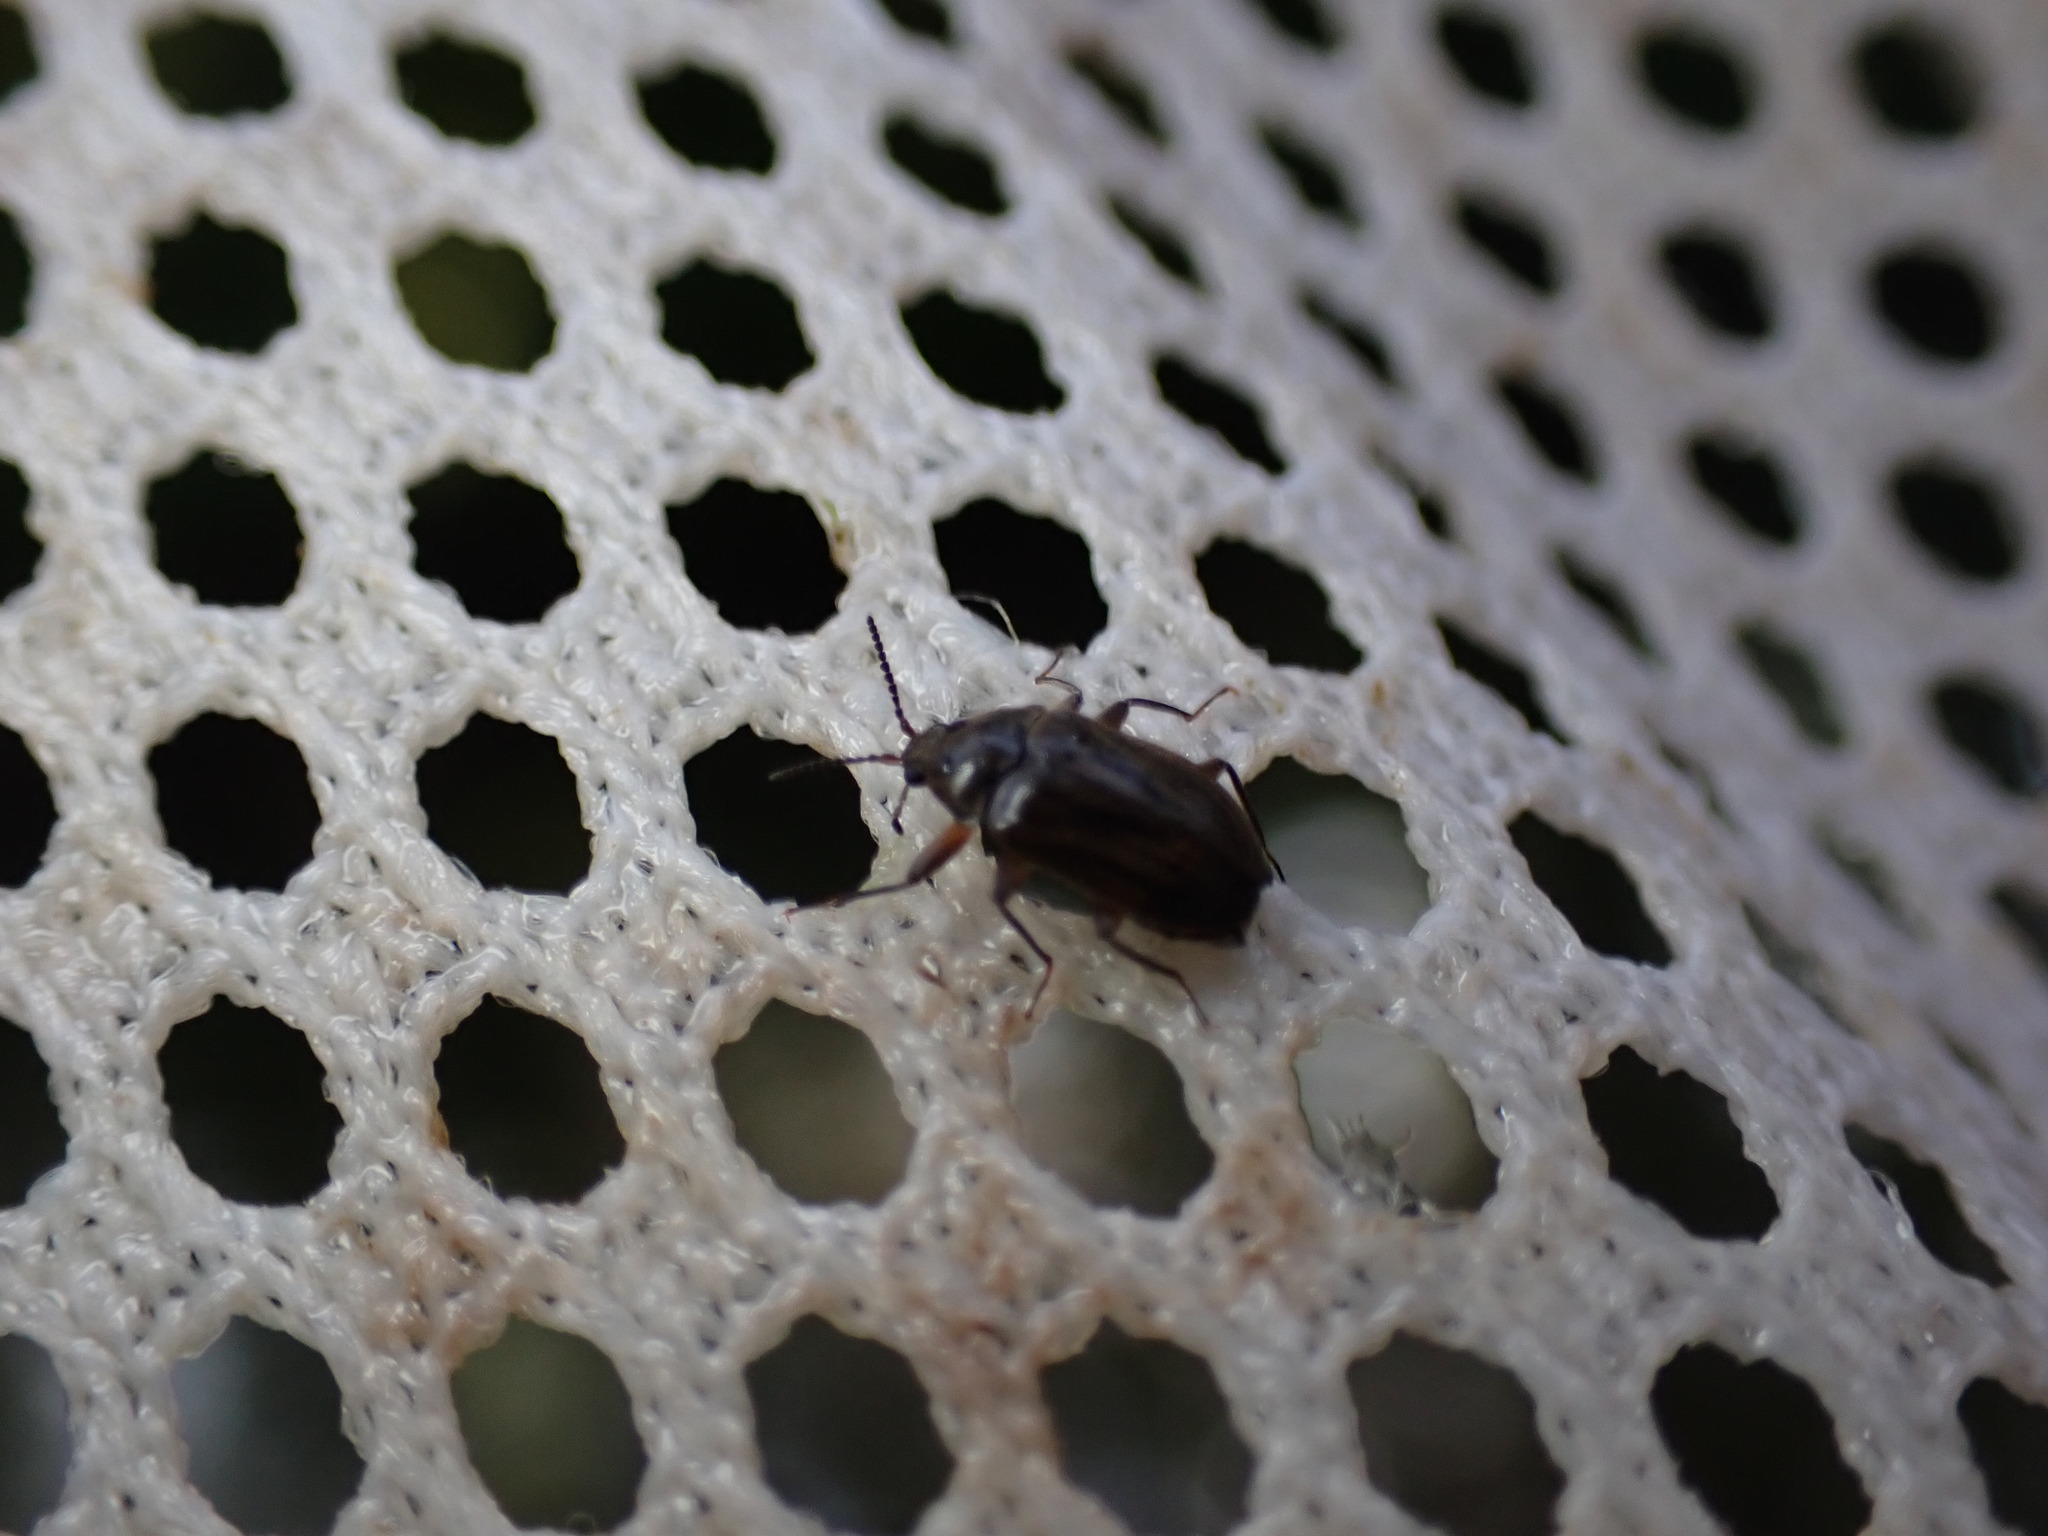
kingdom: Animalia
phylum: Arthropoda
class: Insecta
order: Coleoptera
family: Psephenidae
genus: Psephenus
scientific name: Psephenus herricki
